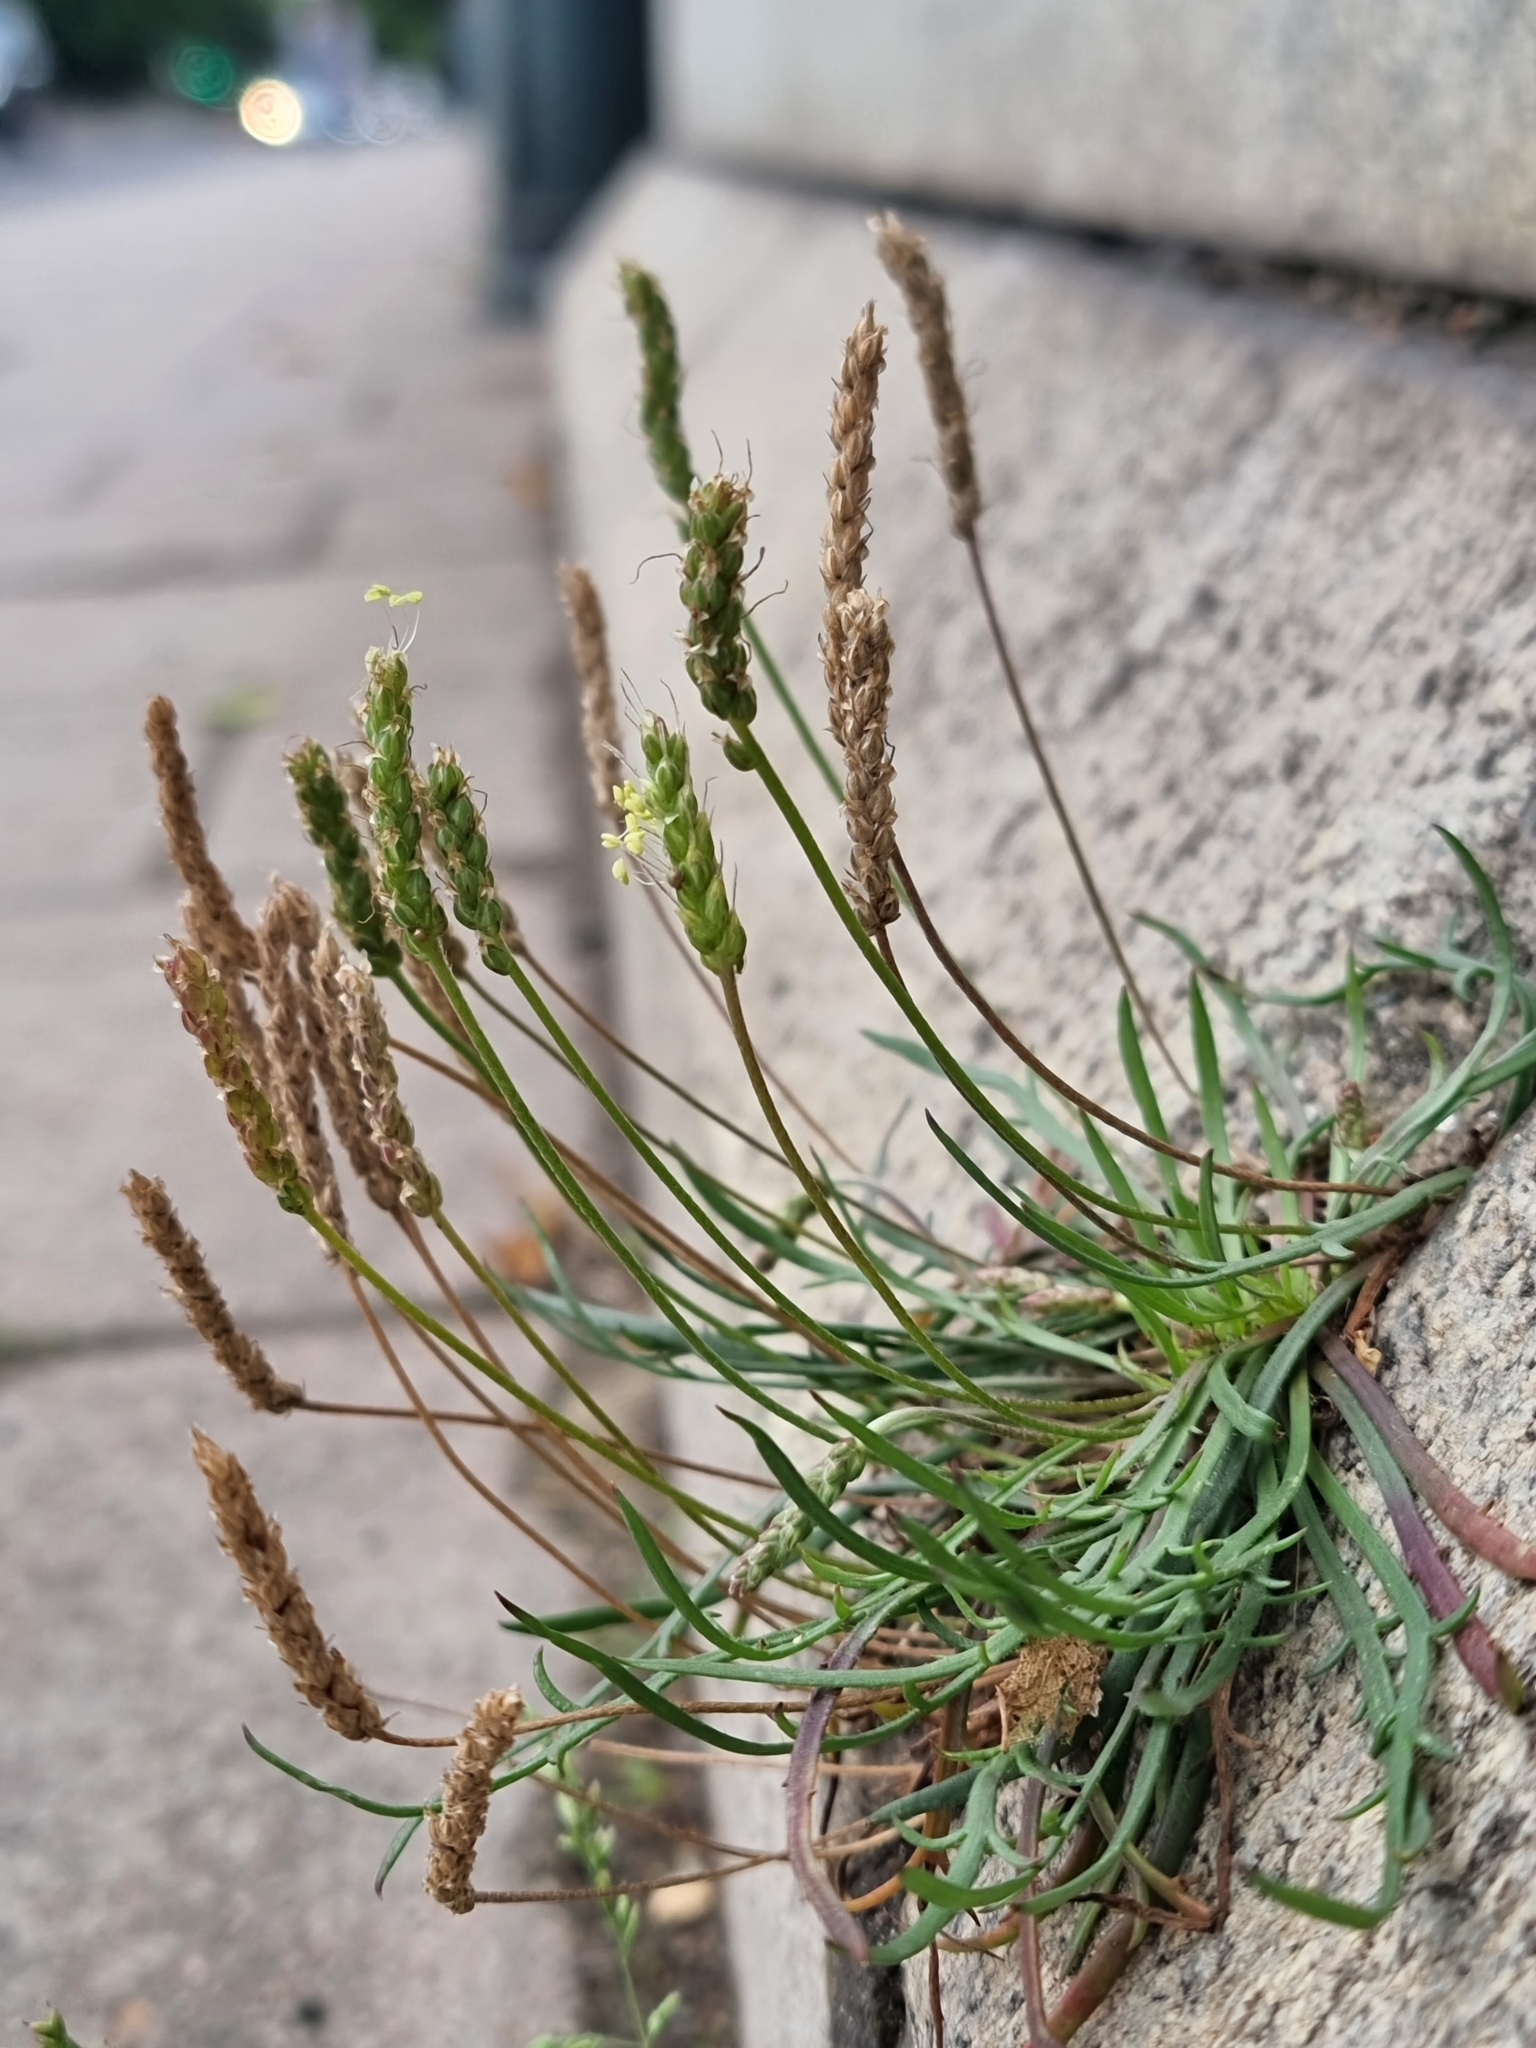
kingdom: Plantae
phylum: Tracheophyta
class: Magnoliopsida
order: Lamiales
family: Plantaginaceae
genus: Plantago
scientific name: Plantago coronopus
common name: Buck's-horn plantain
